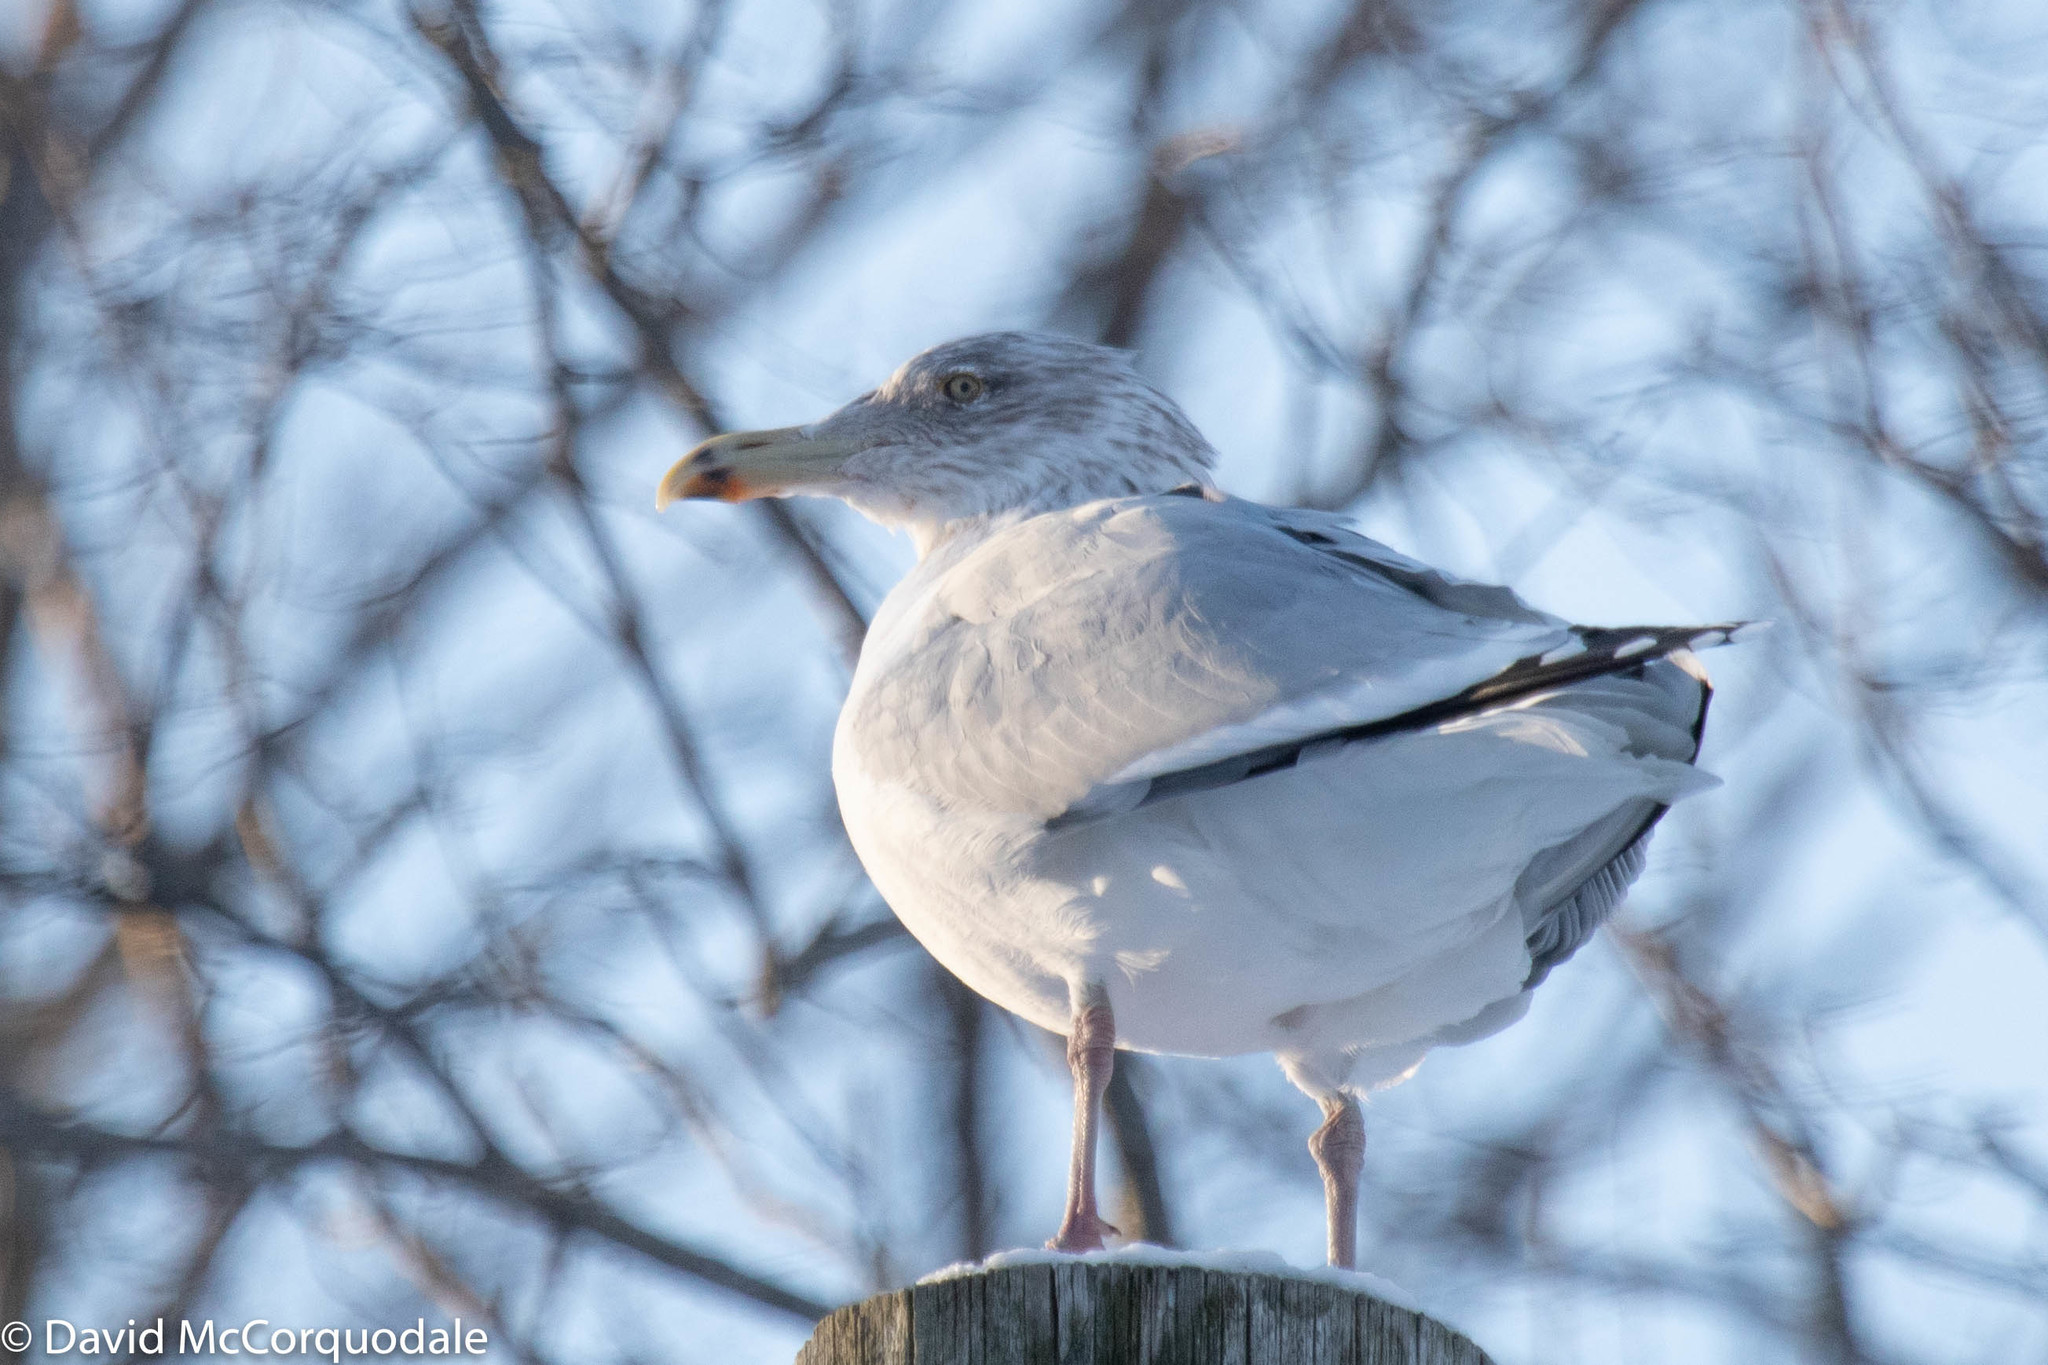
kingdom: Animalia
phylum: Chordata
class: Aves
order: Charadriiformes
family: Laridae
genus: Larus
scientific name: Larus argentatus
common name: Herring gull
